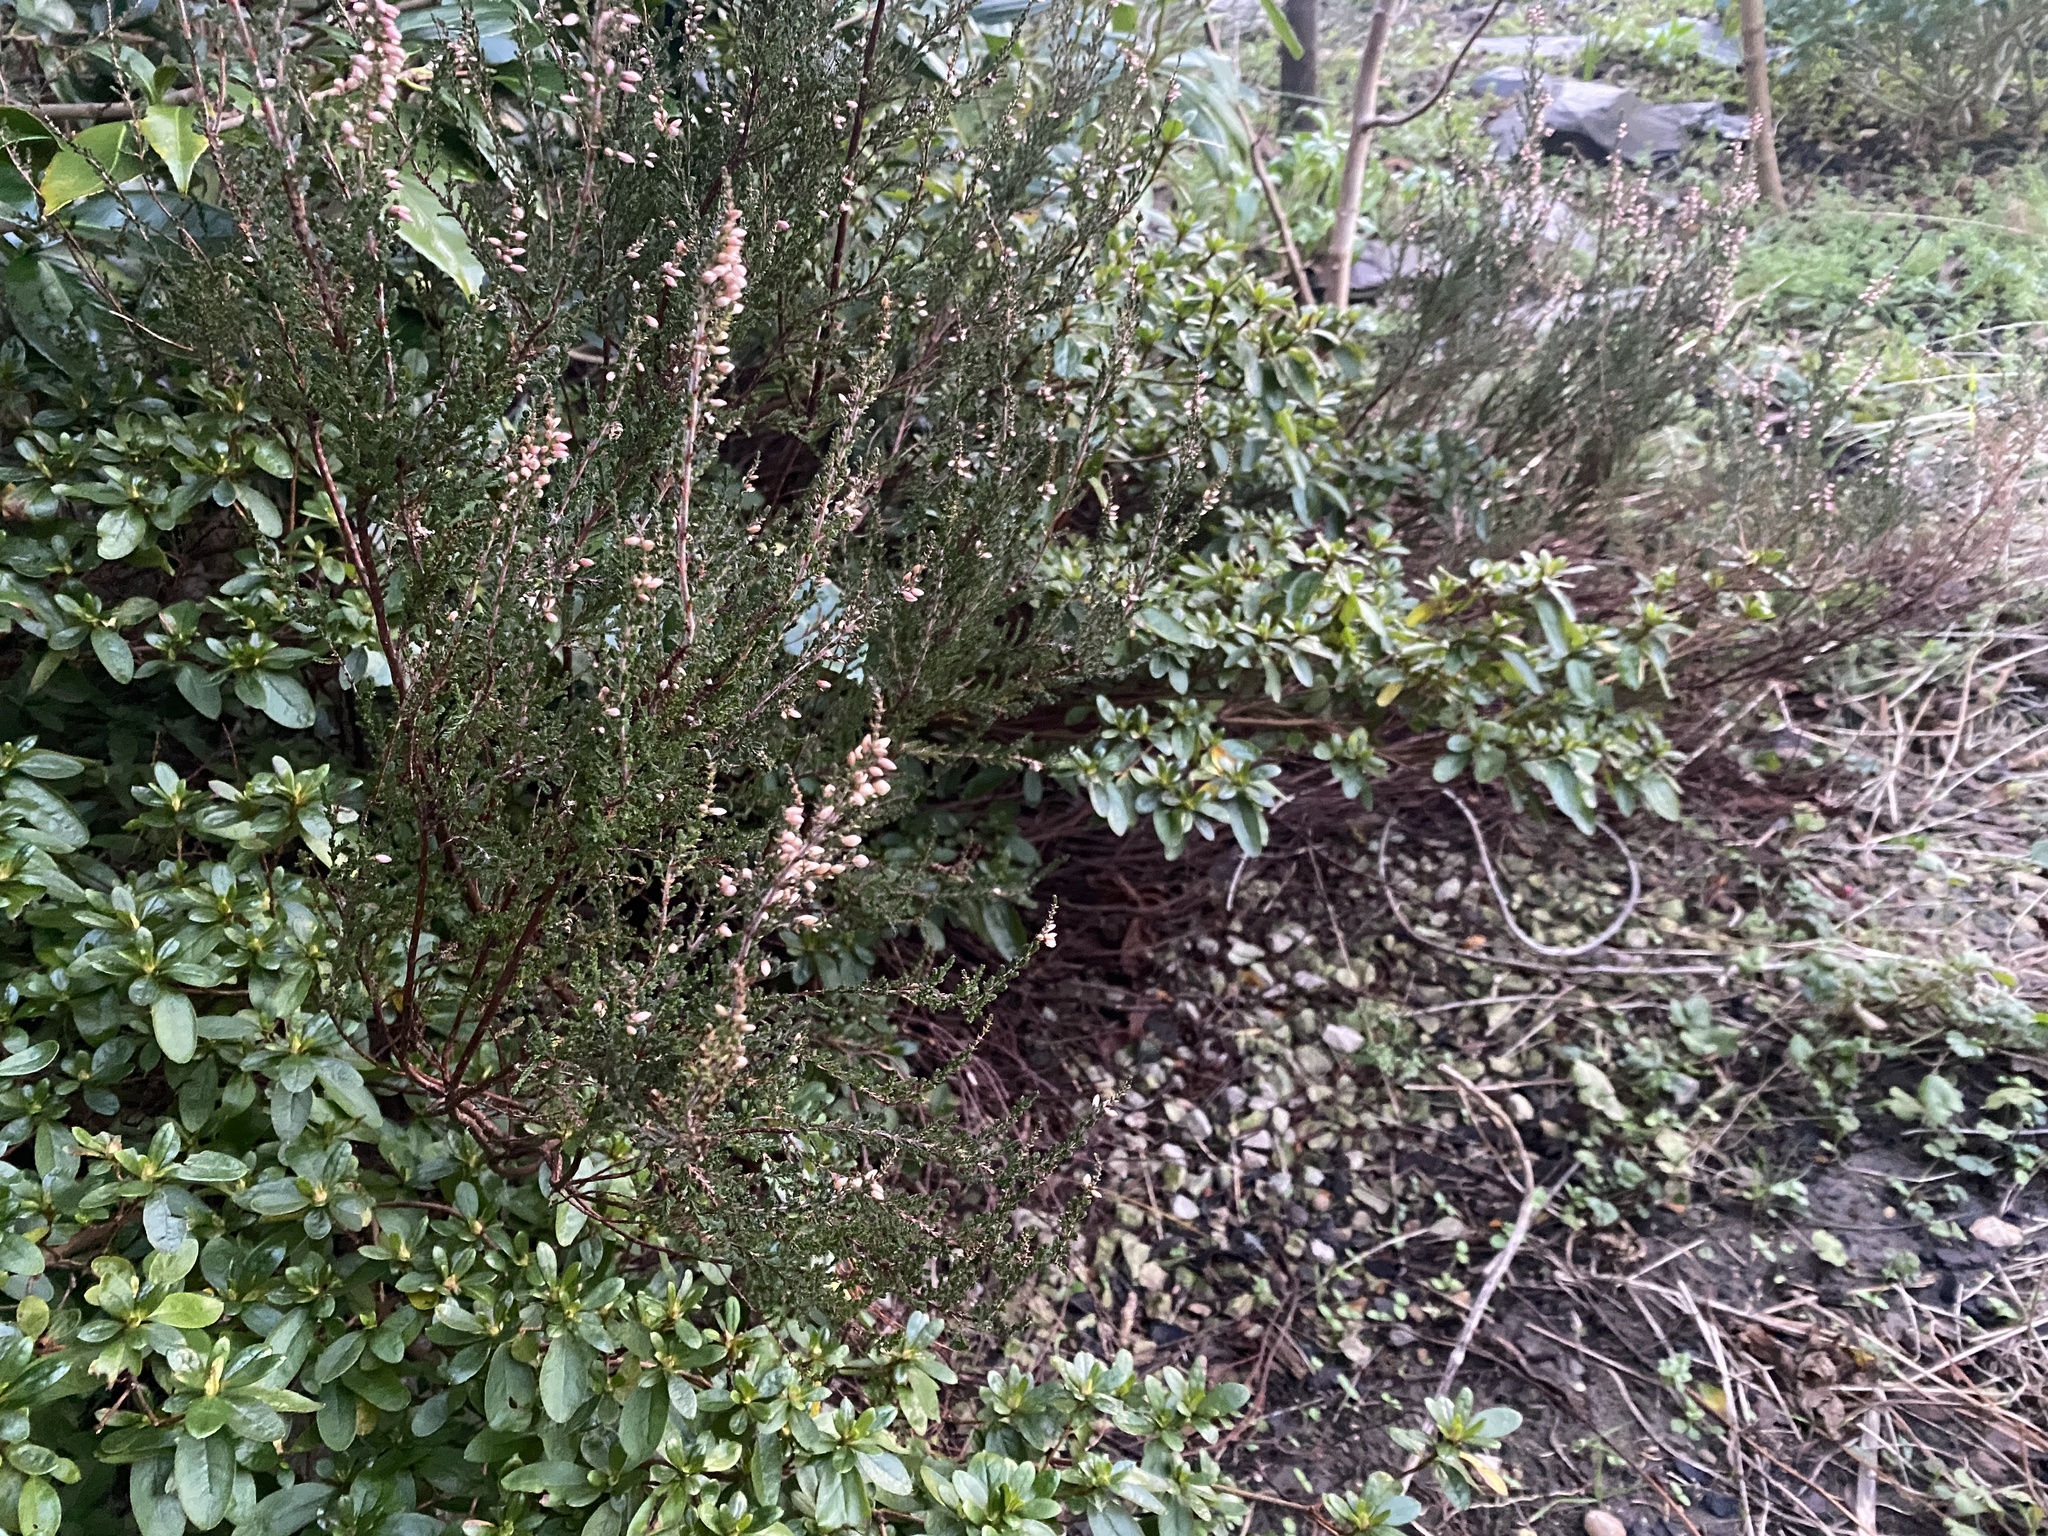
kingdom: Plantae
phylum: Tracheophyta
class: Magnoliopsida
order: Ericales
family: Ericaceae
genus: Calluna
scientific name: Calluna vulgaris
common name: Heather
